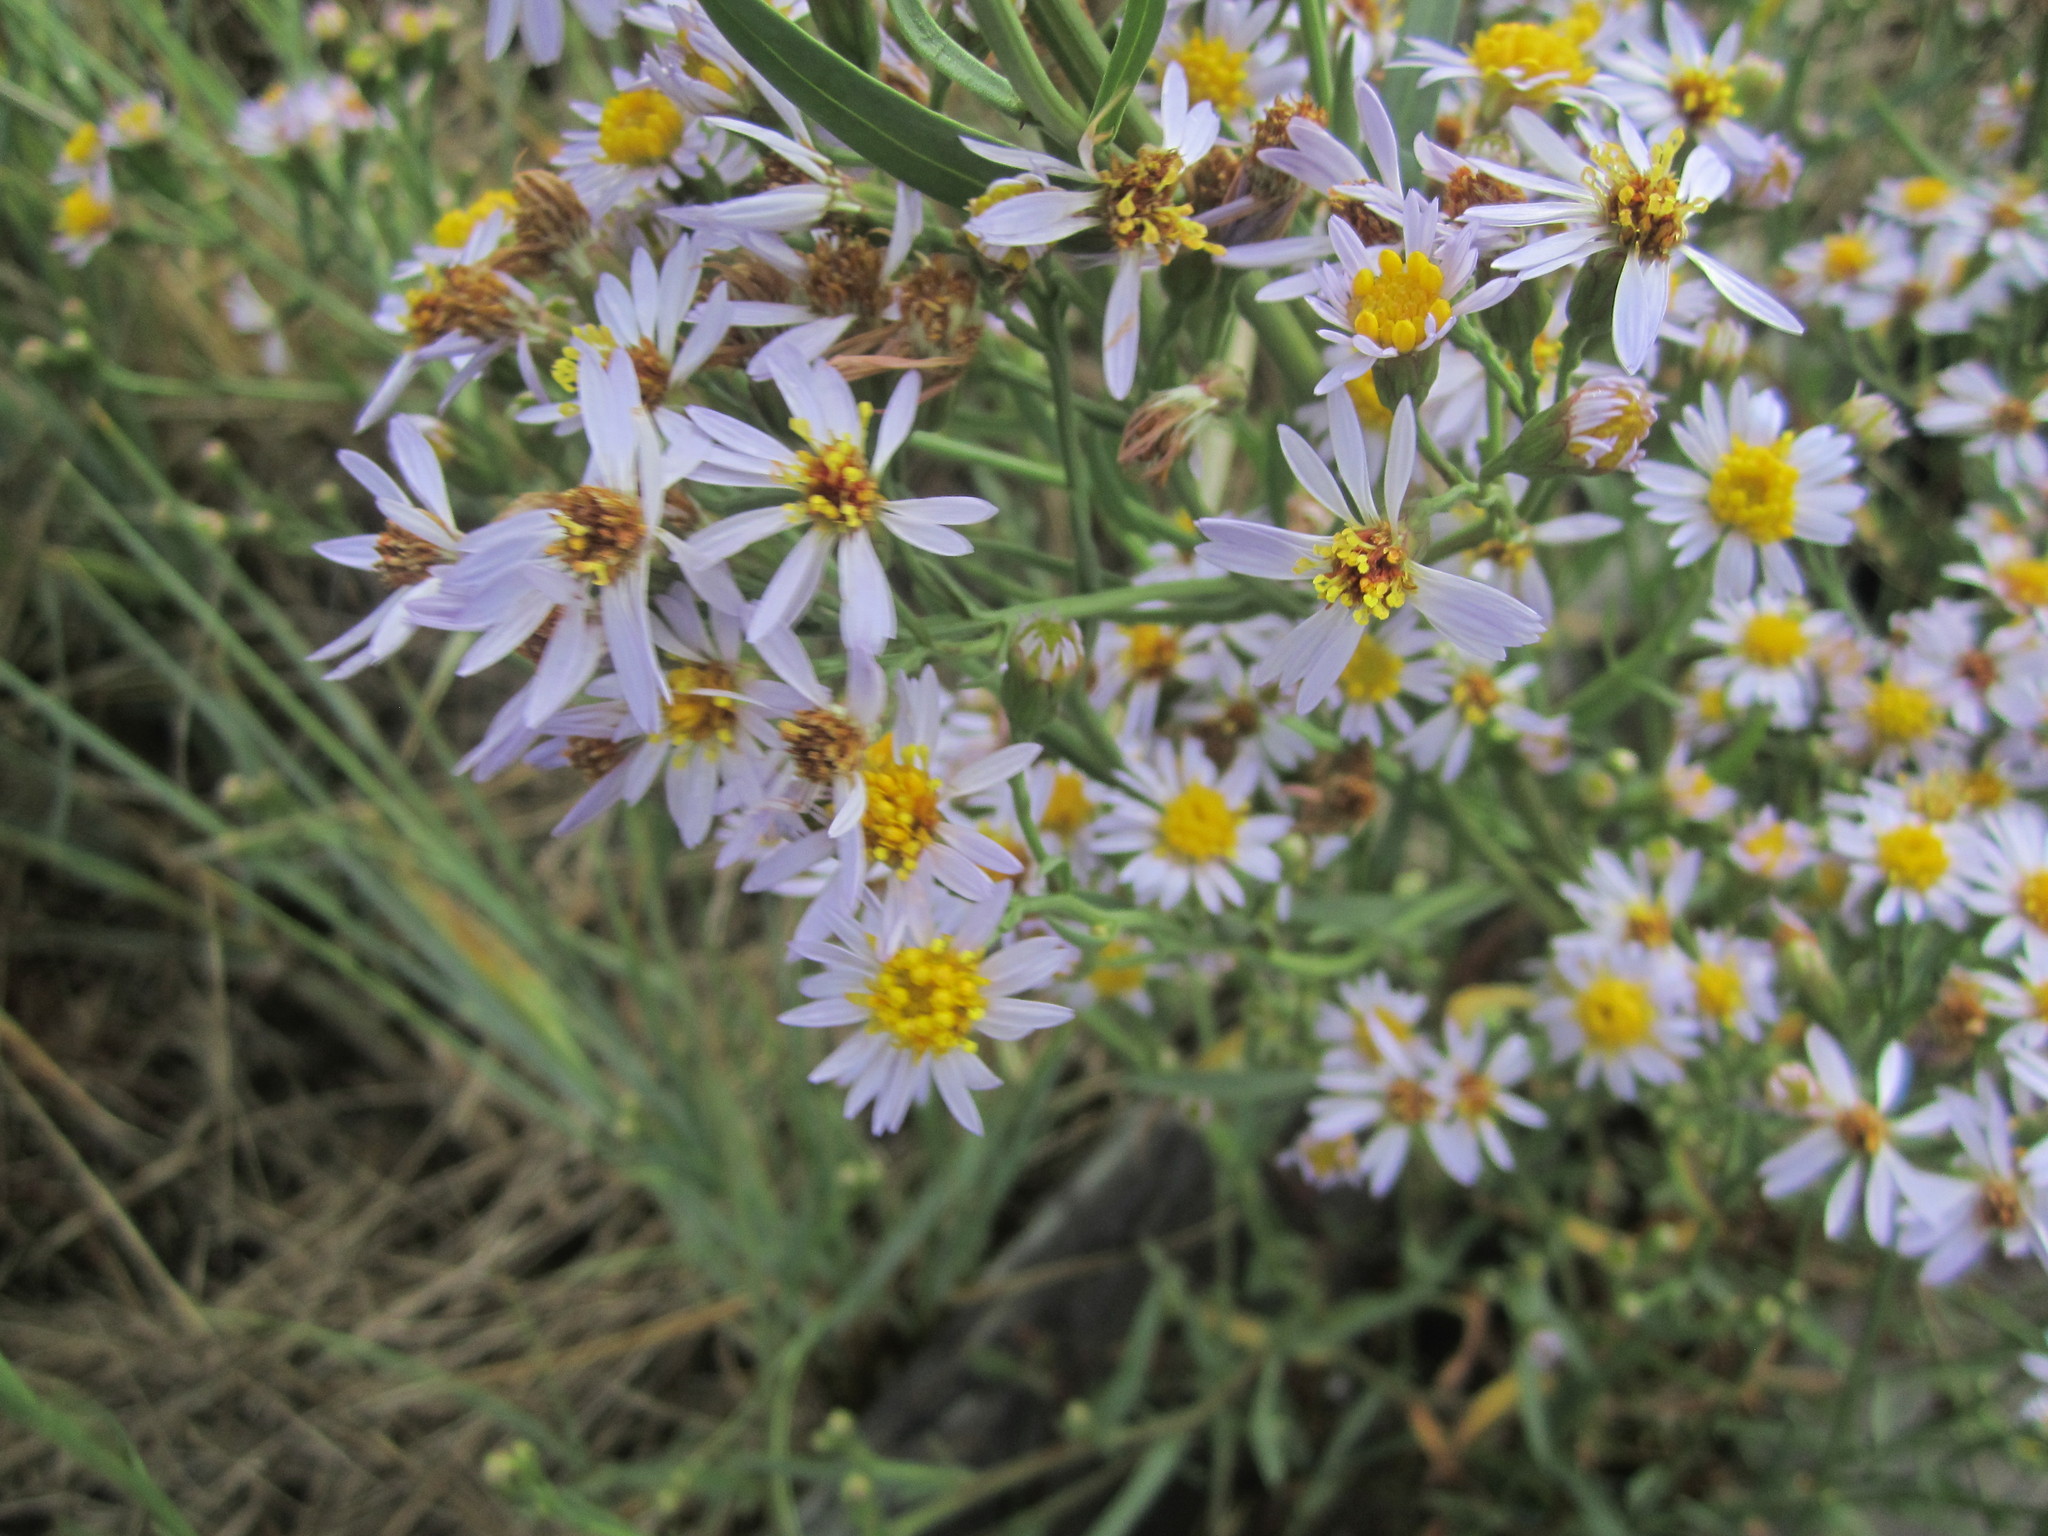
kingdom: Plantae
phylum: Tracheophyta
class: Magnoliopsida
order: Asterales
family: Asteraceae
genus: Tripolium
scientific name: Tripolium pannonicum
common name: Sea aster
